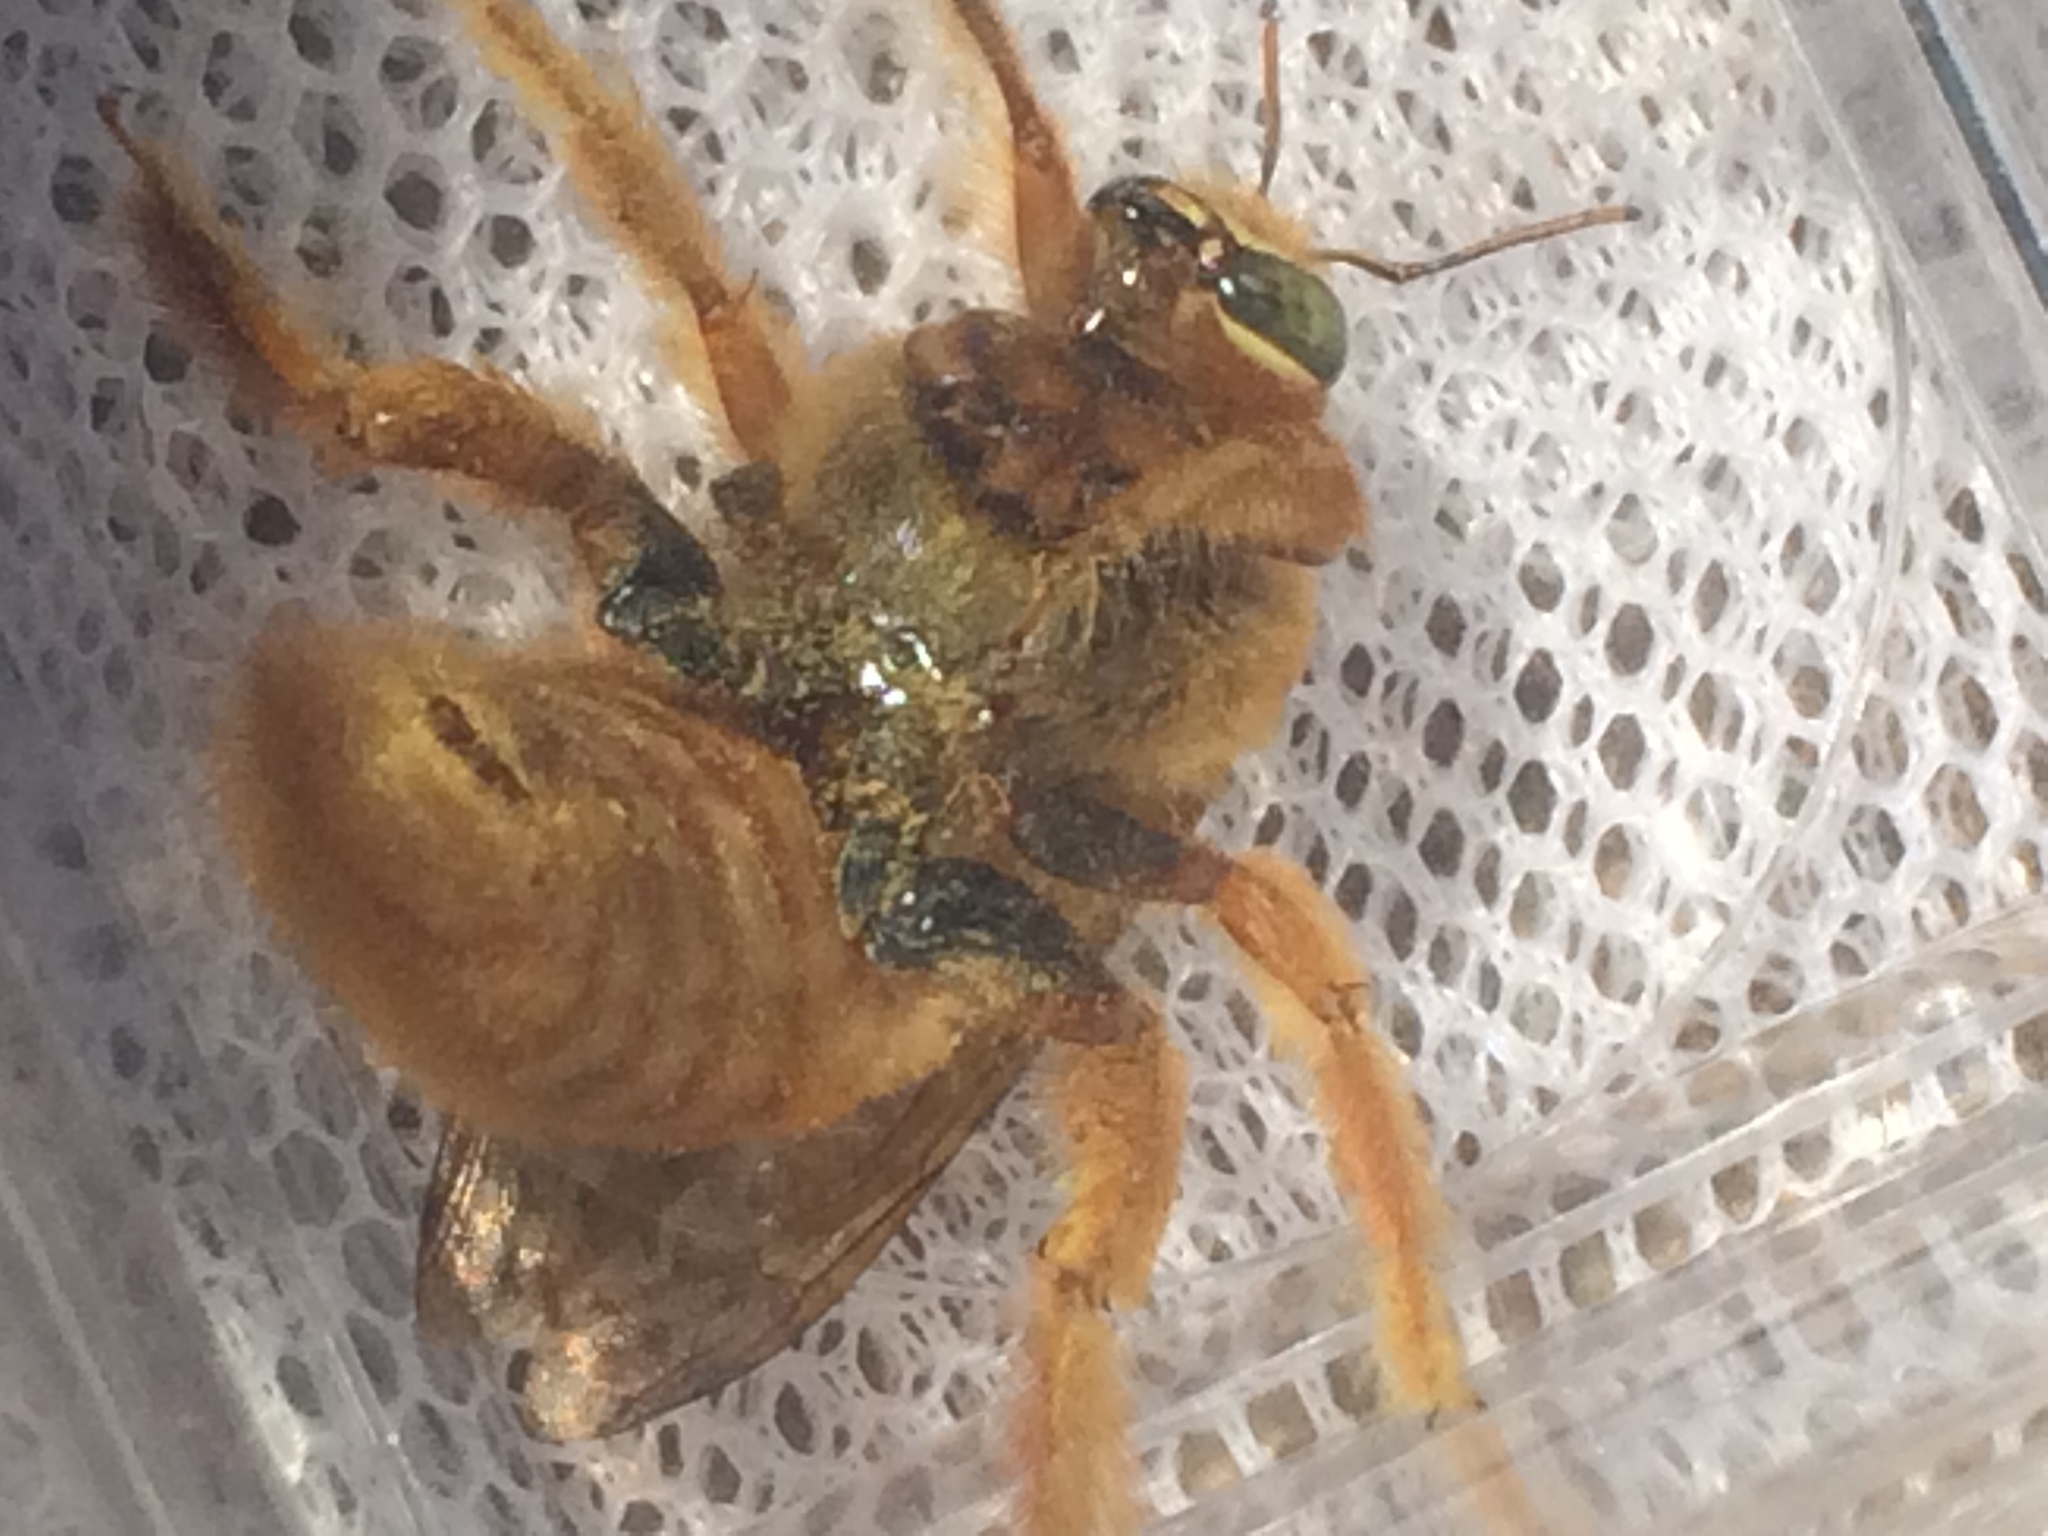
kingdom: Animalia
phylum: Arthropoda
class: Insecta
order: Hymenoptera
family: Apidae
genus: Xylocopa
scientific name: Xylocopa sonorina
